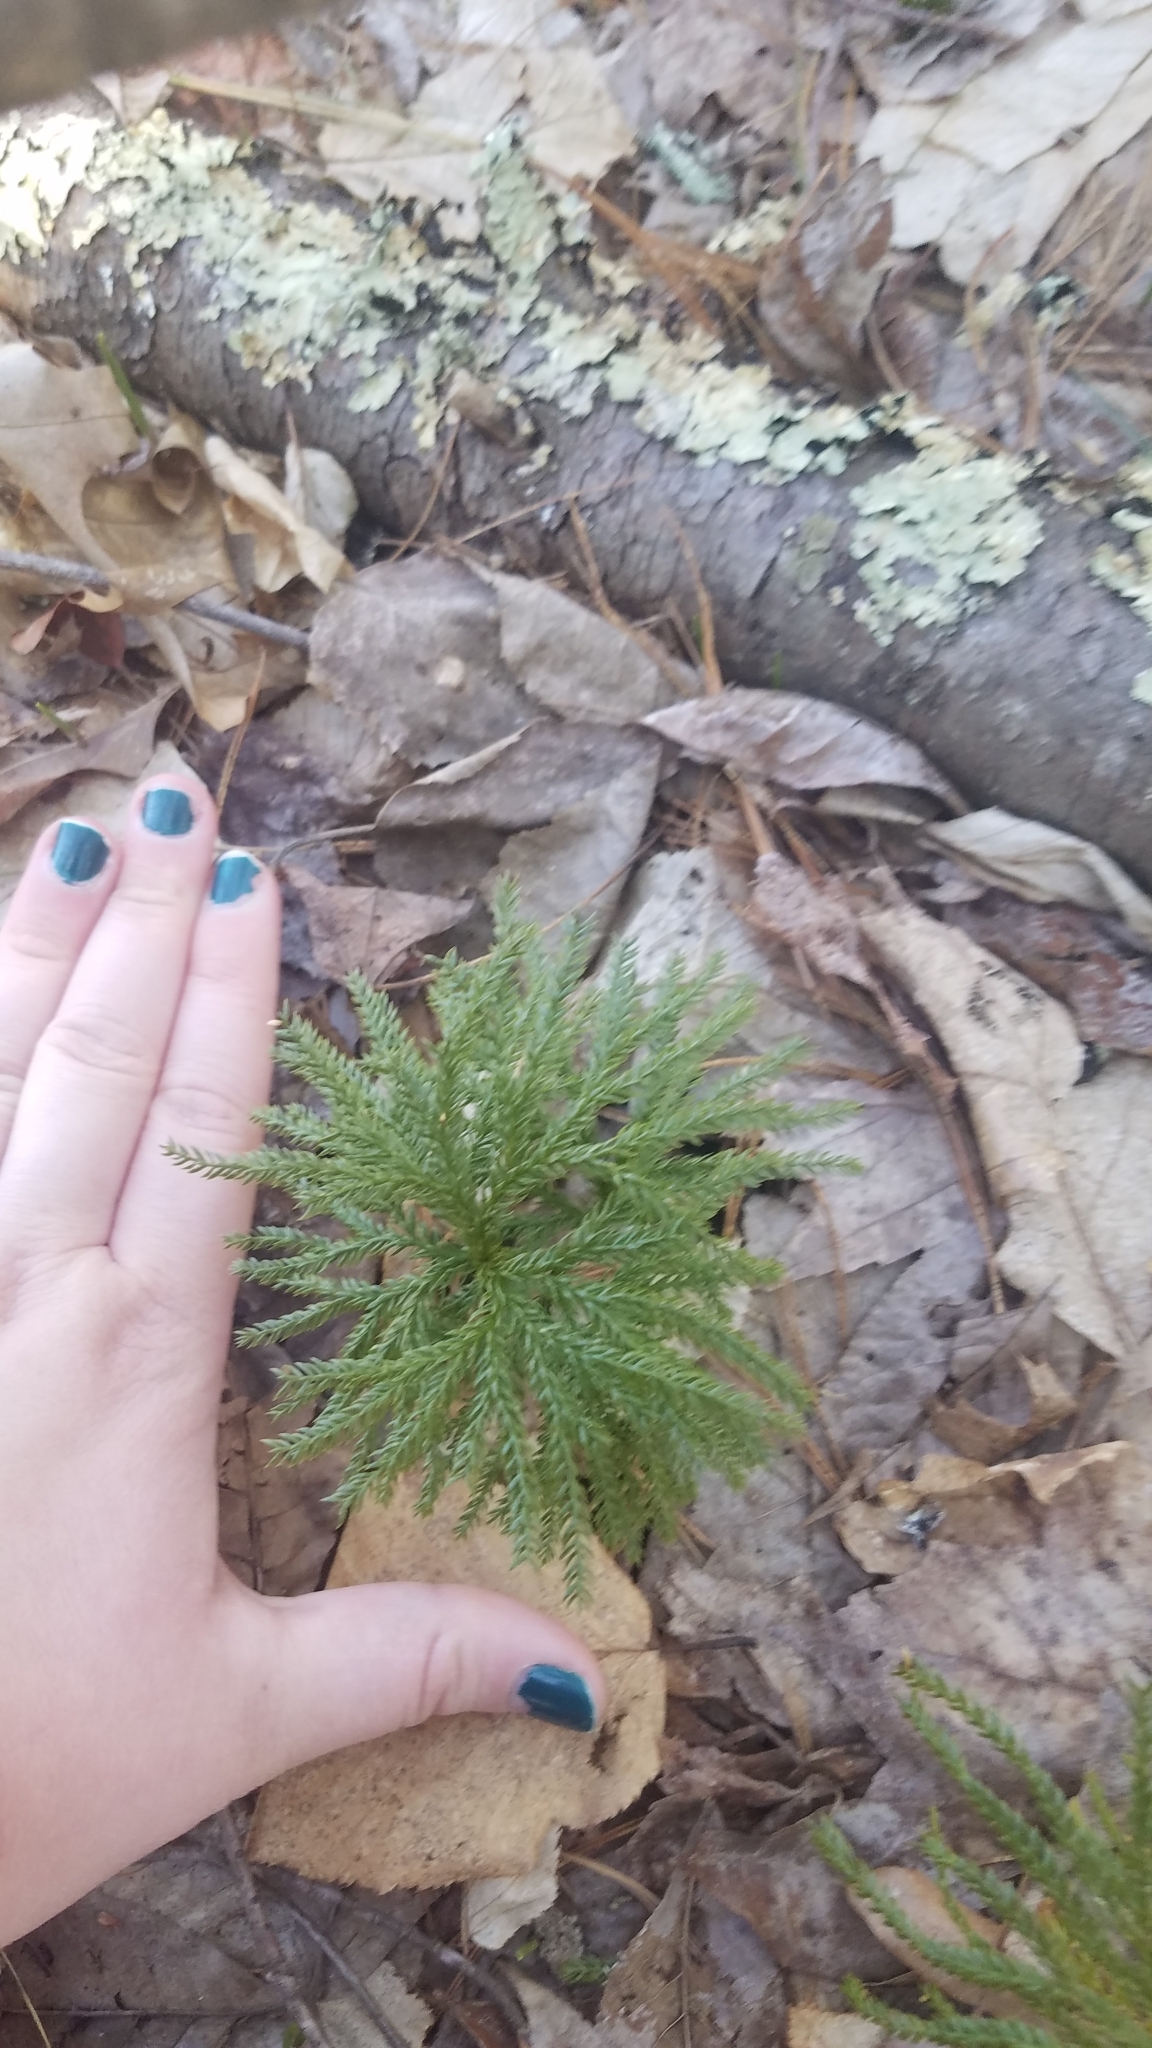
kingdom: Plantae
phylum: Tracheophyta
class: Lycopodiopsida
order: Lycopodiales
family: Lycopodiaceae
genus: Dendrolycopodium
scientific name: Dendrolycopodium obscurum
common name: Common ground-pine
